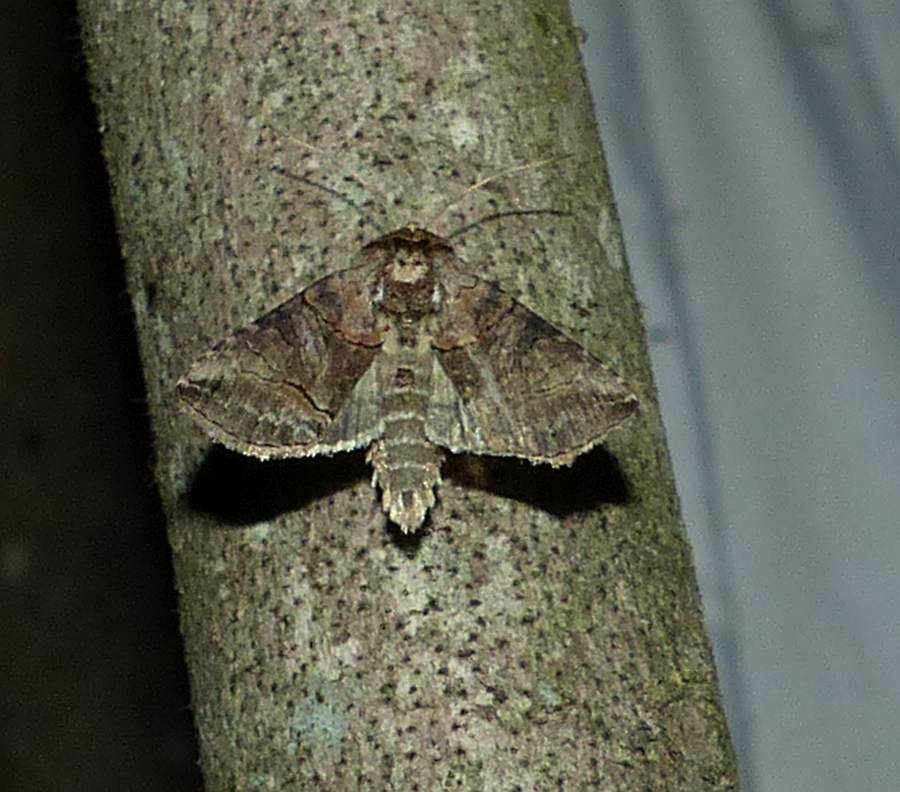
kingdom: Animalia
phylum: Arthropoda
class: Insecta
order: Lepidoptera
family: Noctuidae
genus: Abrostola
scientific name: Abrostola urentis
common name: Spectacled nettle moth
